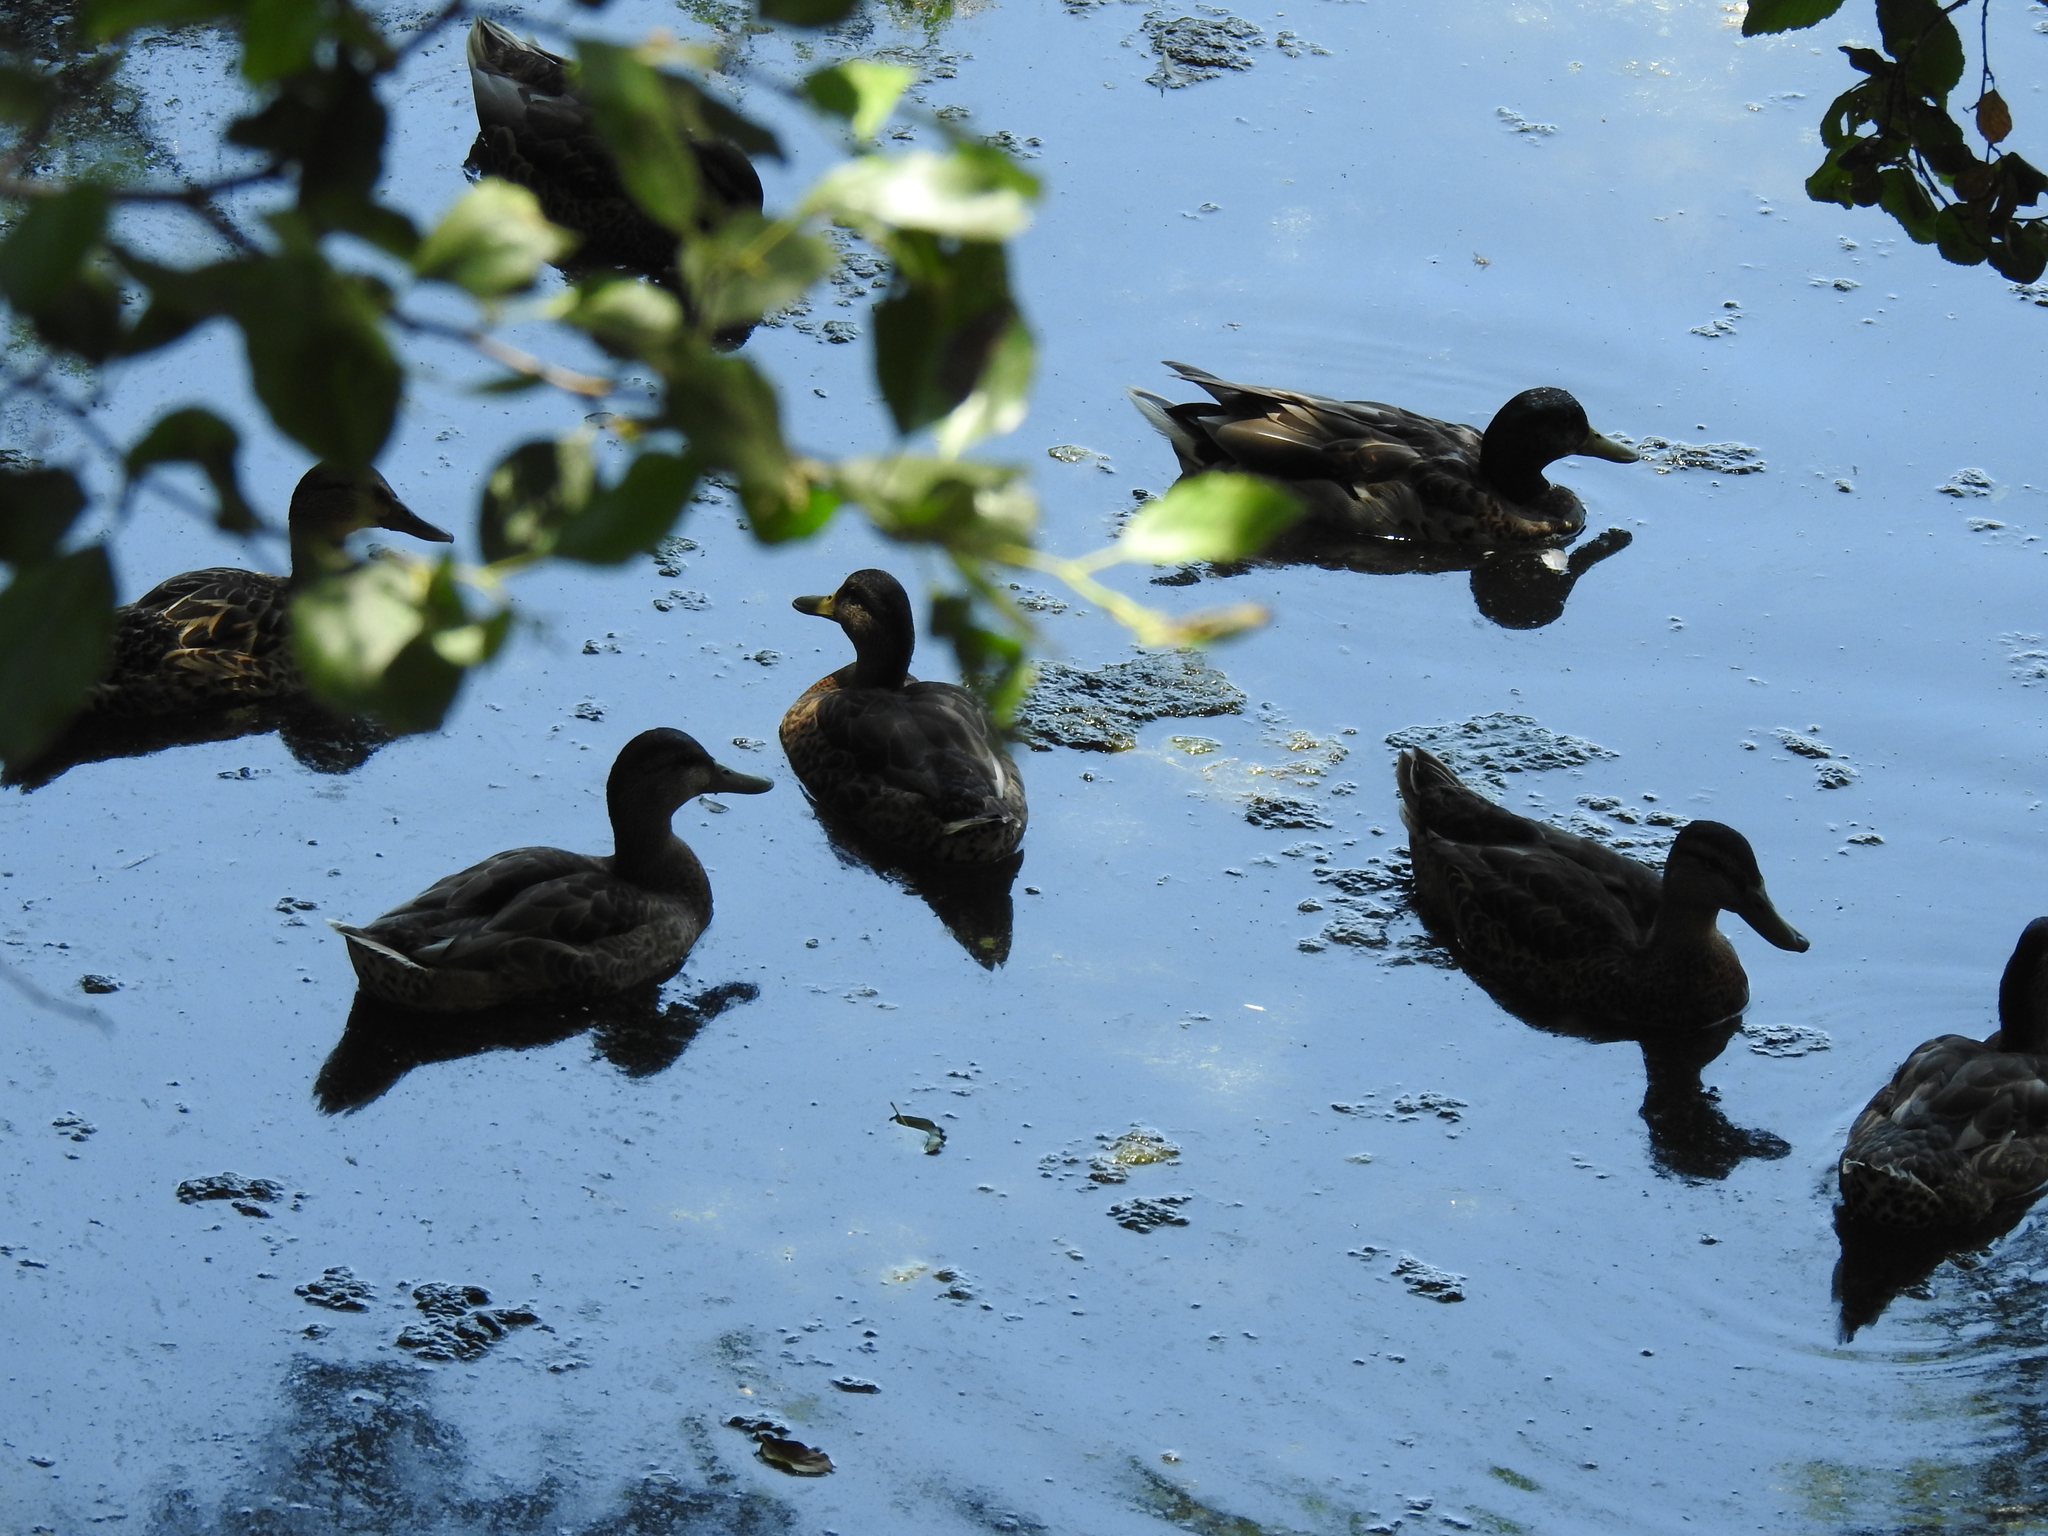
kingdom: Animalia
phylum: Chordata
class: Aves
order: Anseriformes
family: Anatidae
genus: Anas
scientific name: Anas platyrhynchos
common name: Mallard
